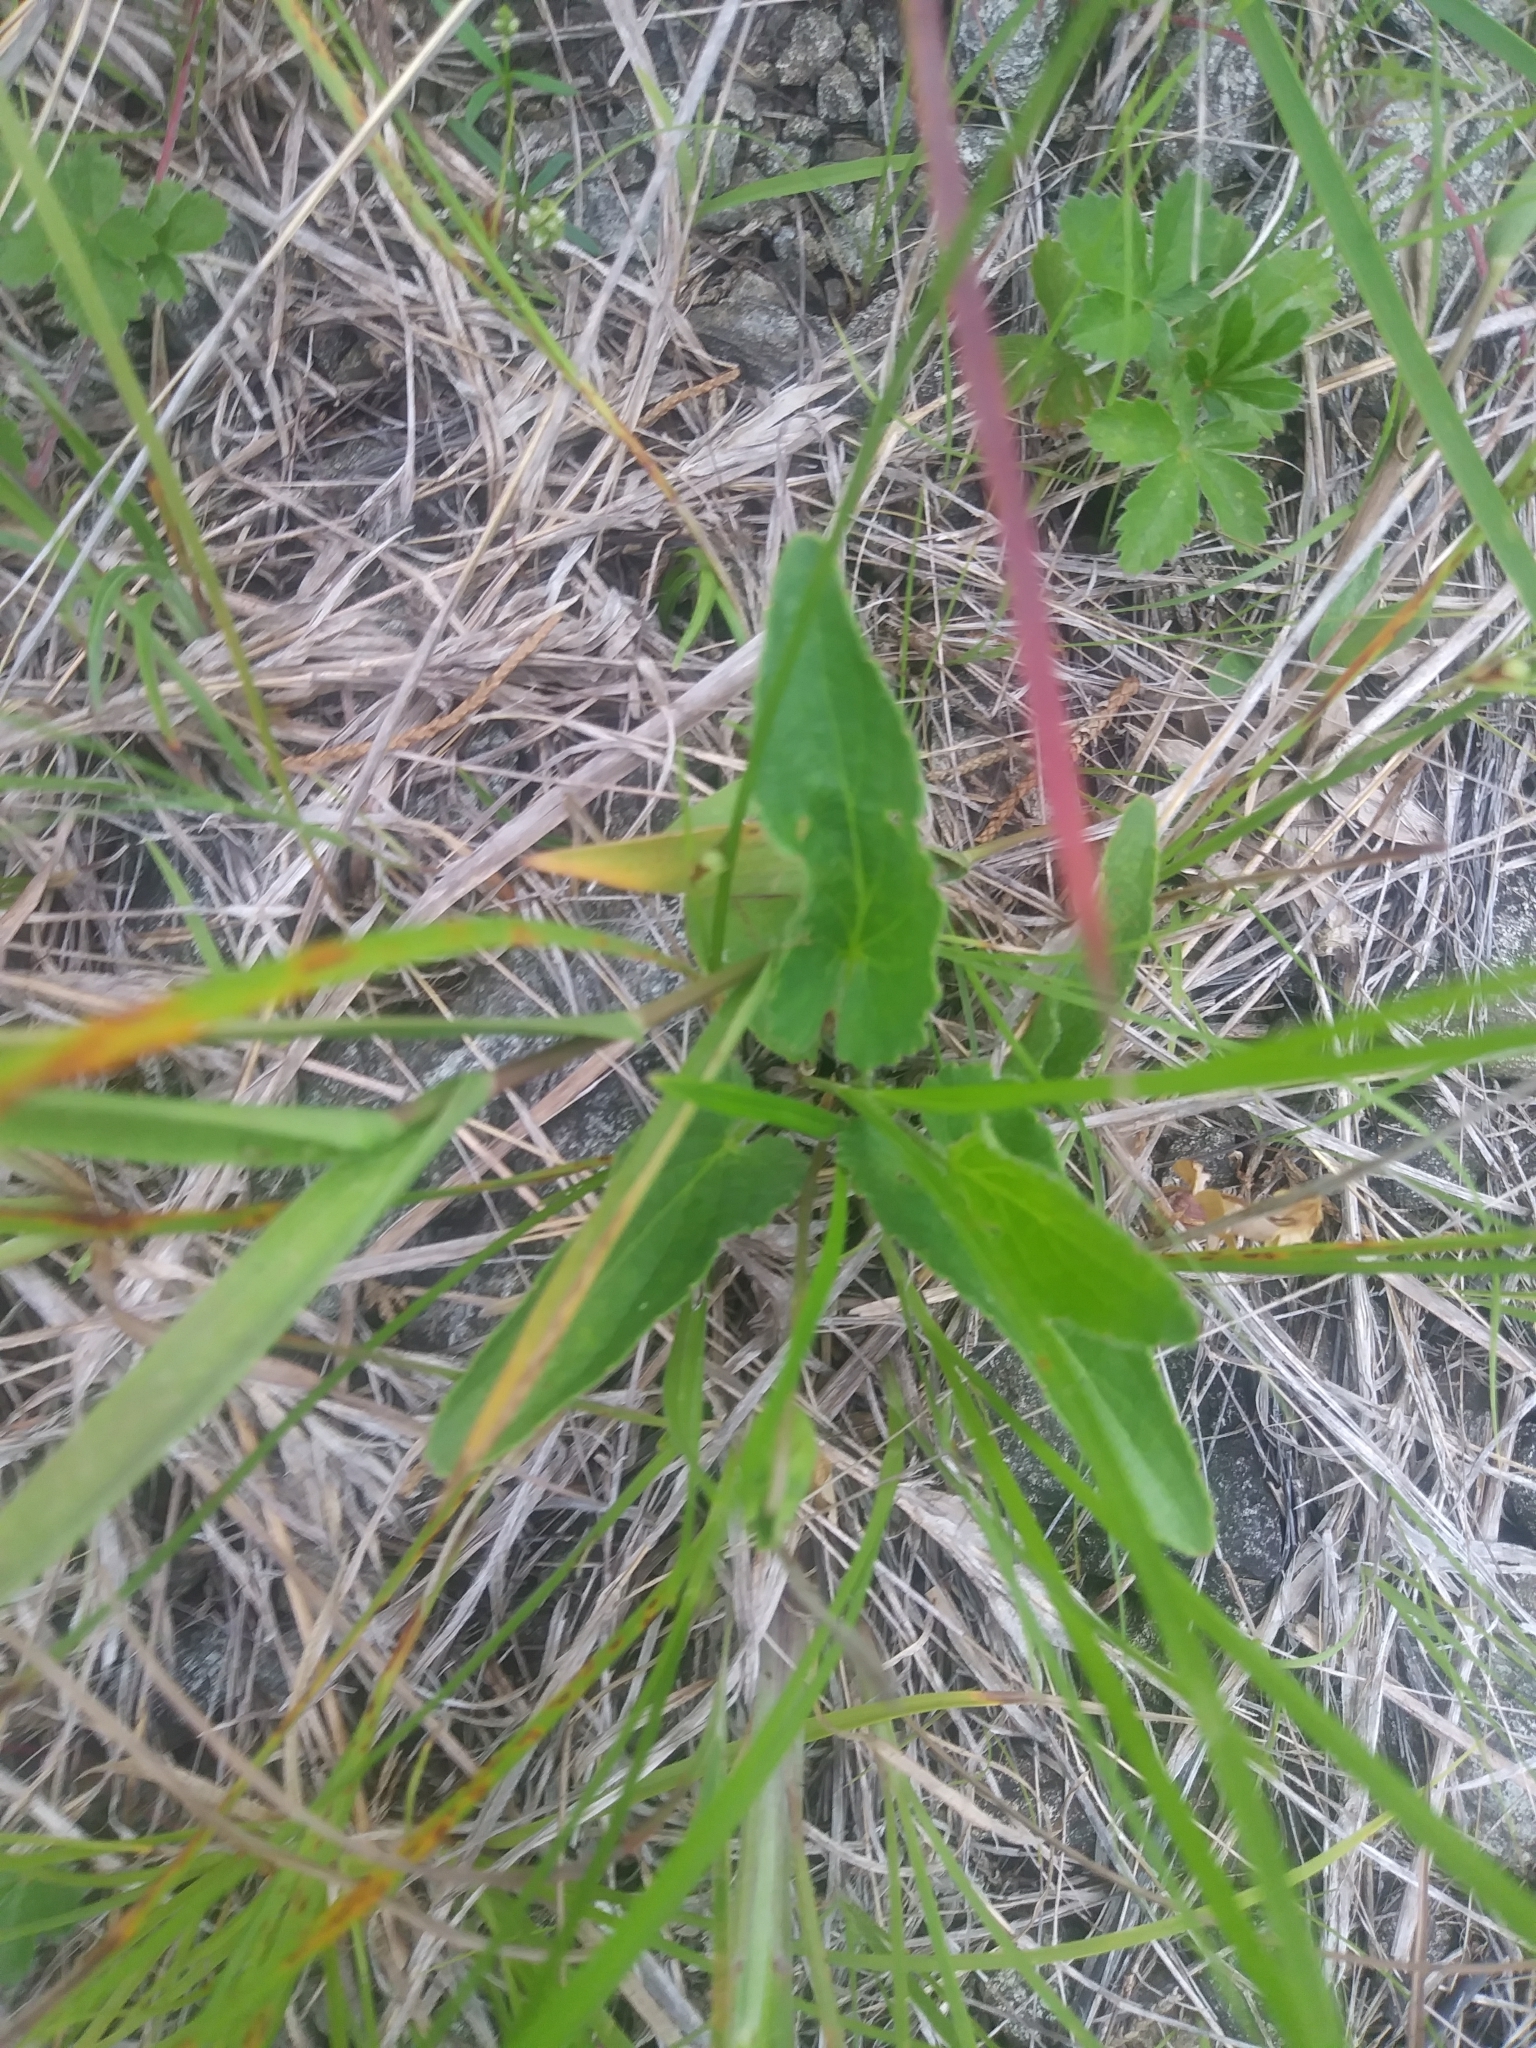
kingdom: Plantae
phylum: Tracheophyta
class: Magnoliopsida
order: Malpighiales
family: Violaceae
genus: Viola
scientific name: Viola sagittata
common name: Arrowhead violet
